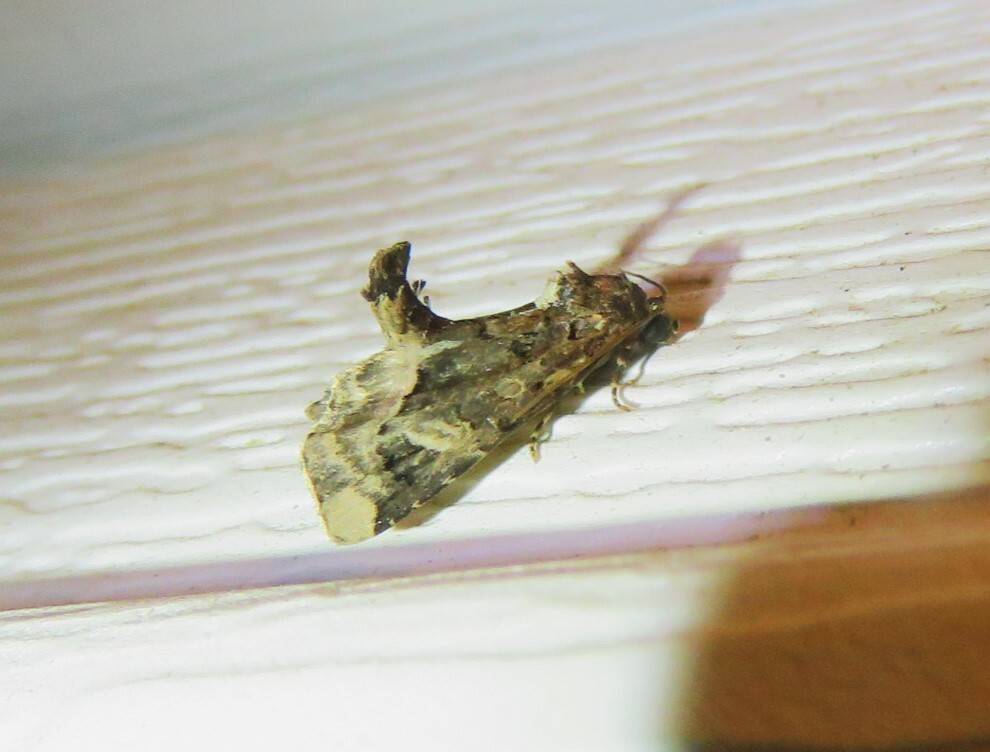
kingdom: Animalia
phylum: Arthropoda
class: Insecta
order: Lepidoptera
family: Noctuidae
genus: Homophoberia
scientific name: Homophoberia apicosa
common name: Black wedge-spot
